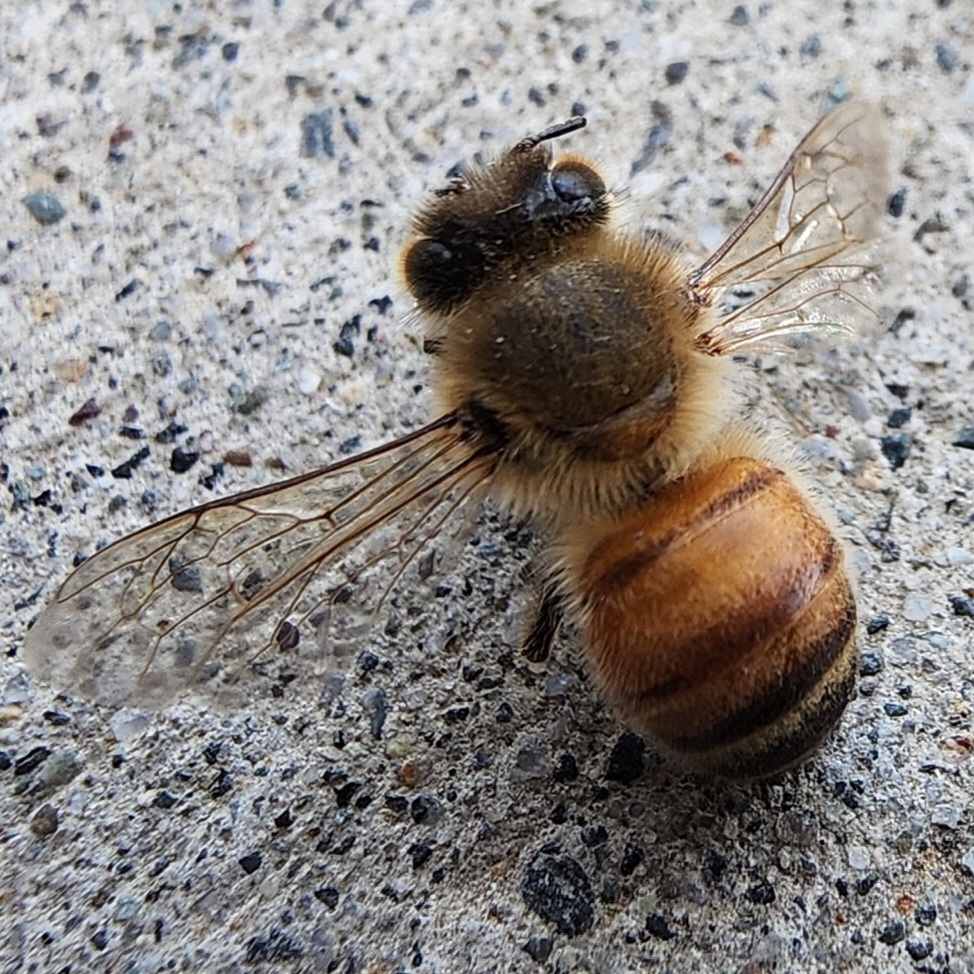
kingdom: Animalia
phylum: Arthropoda
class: Insecta
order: Hymenoptera
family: Apidae
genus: Apis
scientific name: Apis mellifera
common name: Honey bee
